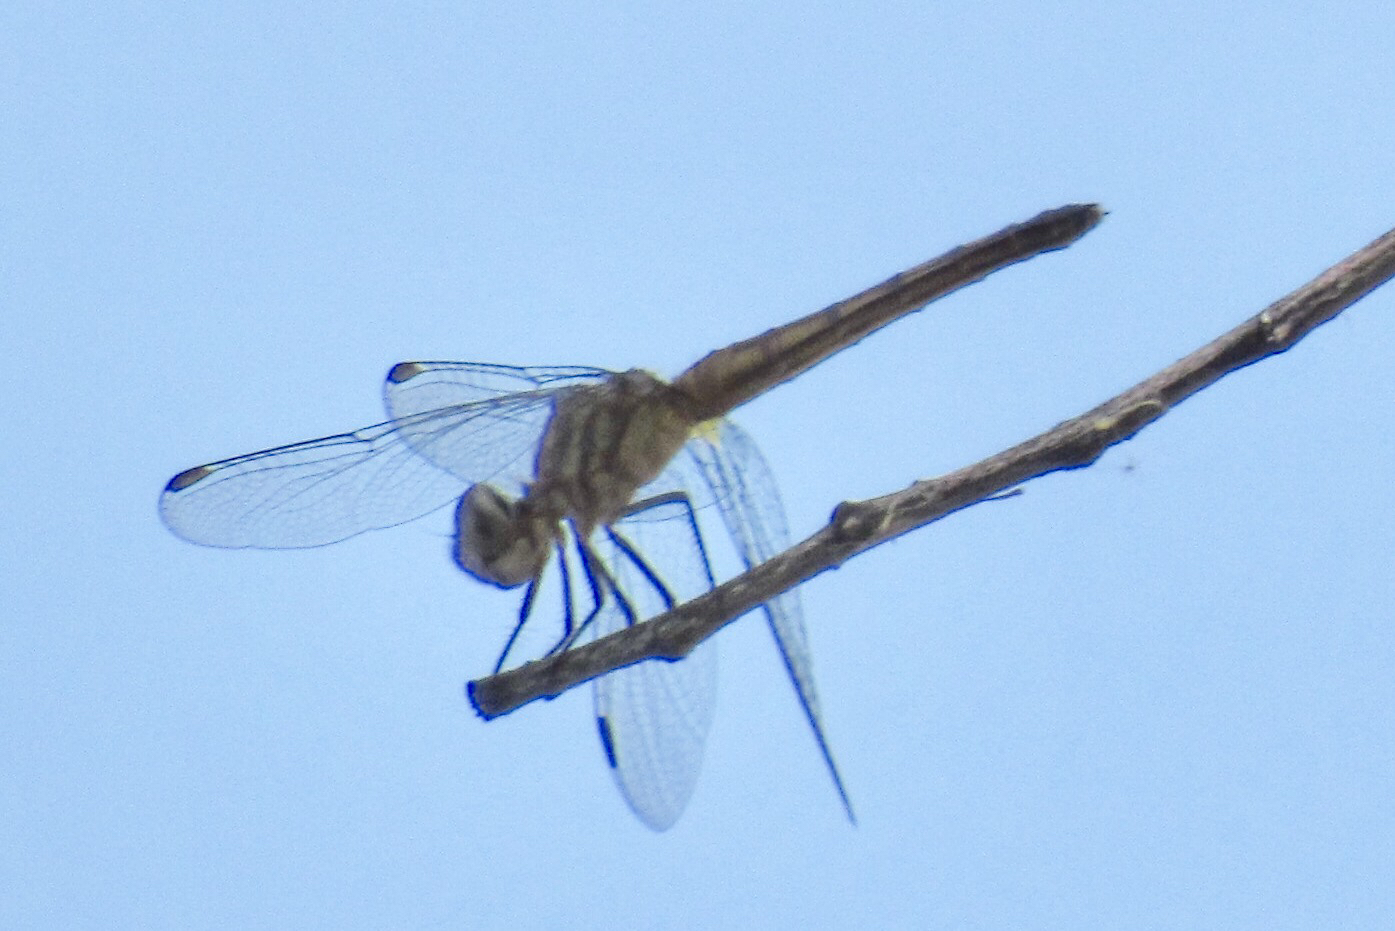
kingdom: Animalia
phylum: Arthropoda
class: Insecta
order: Odonata
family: Libellulidae
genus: Pachydiplax
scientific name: Pachydiplax longipennis
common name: Blue dasher
